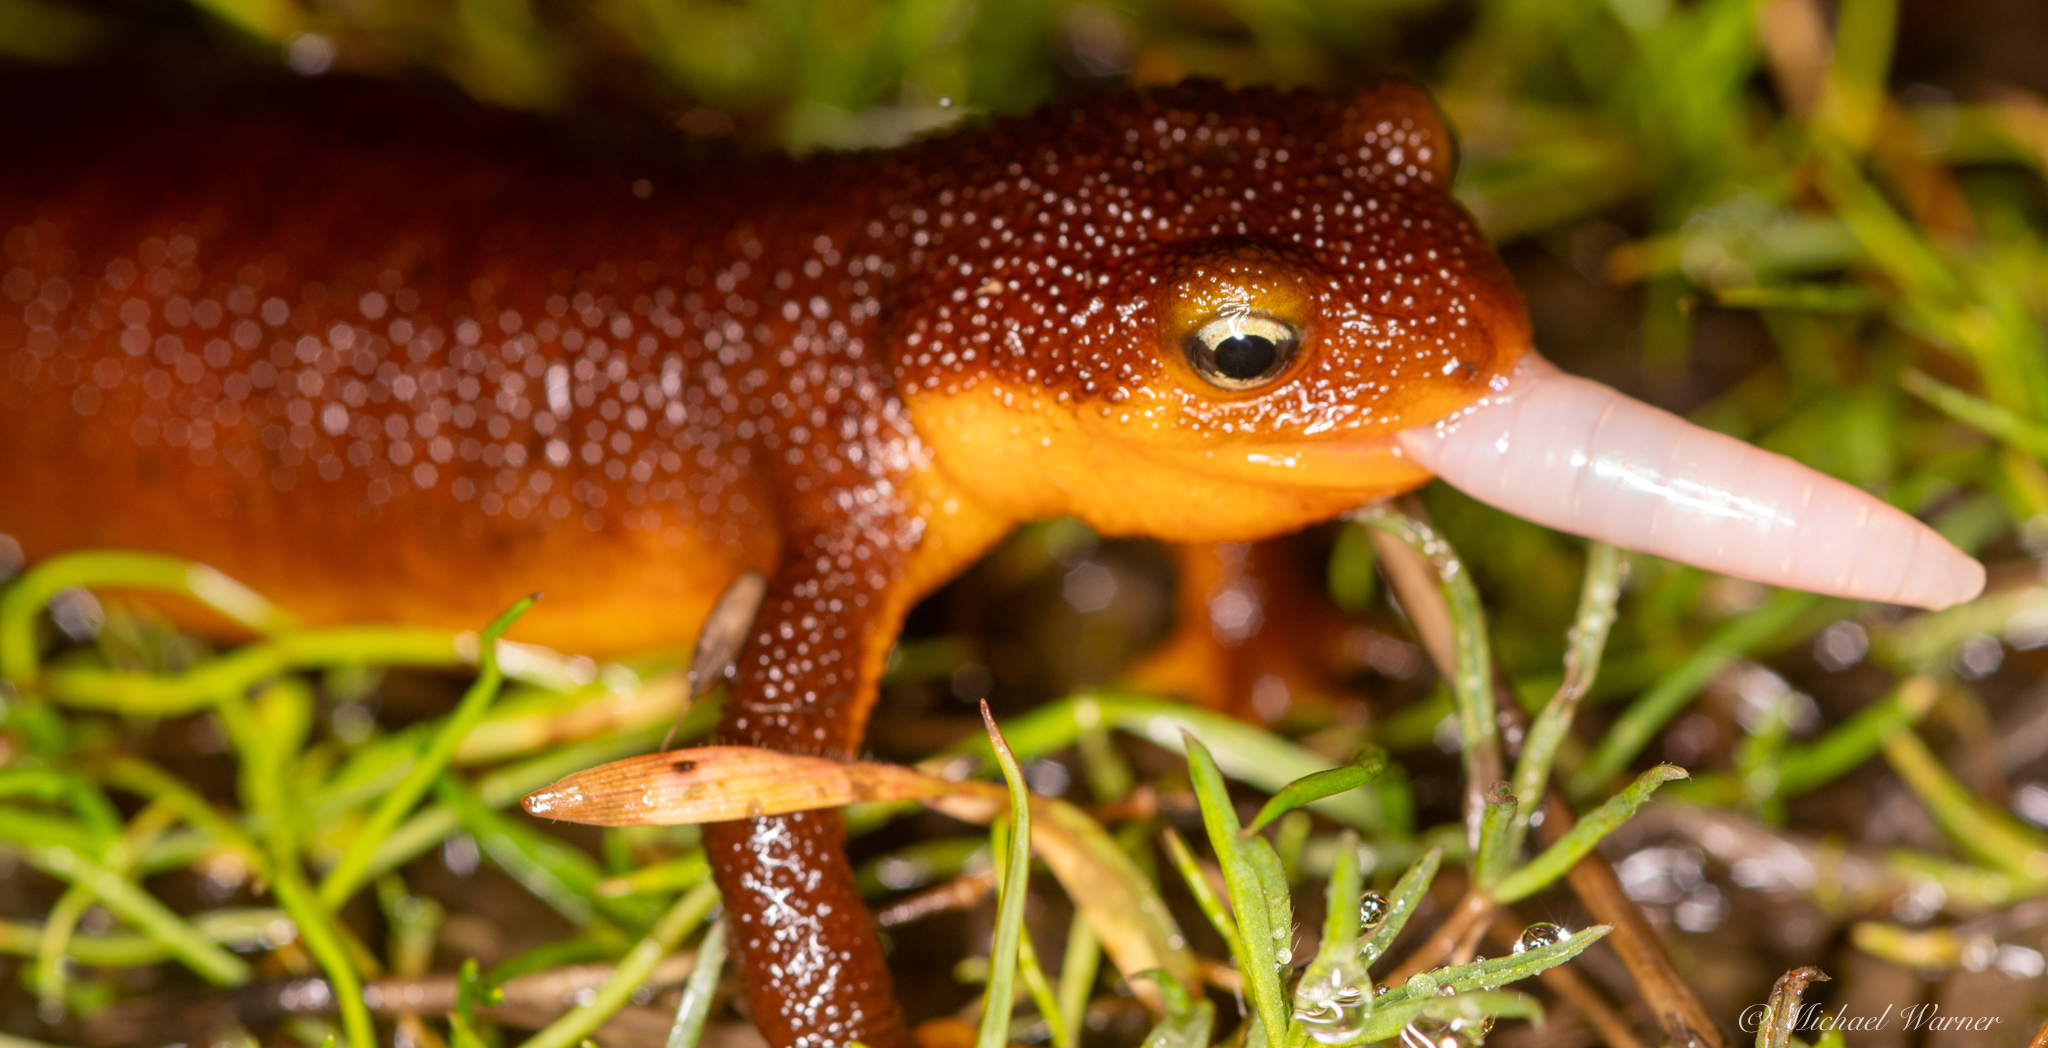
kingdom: Animalia
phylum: Chordata
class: Amphibia
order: Caudata
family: Salamandridae
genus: Taricha
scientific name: Taricha torosa
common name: California newt
